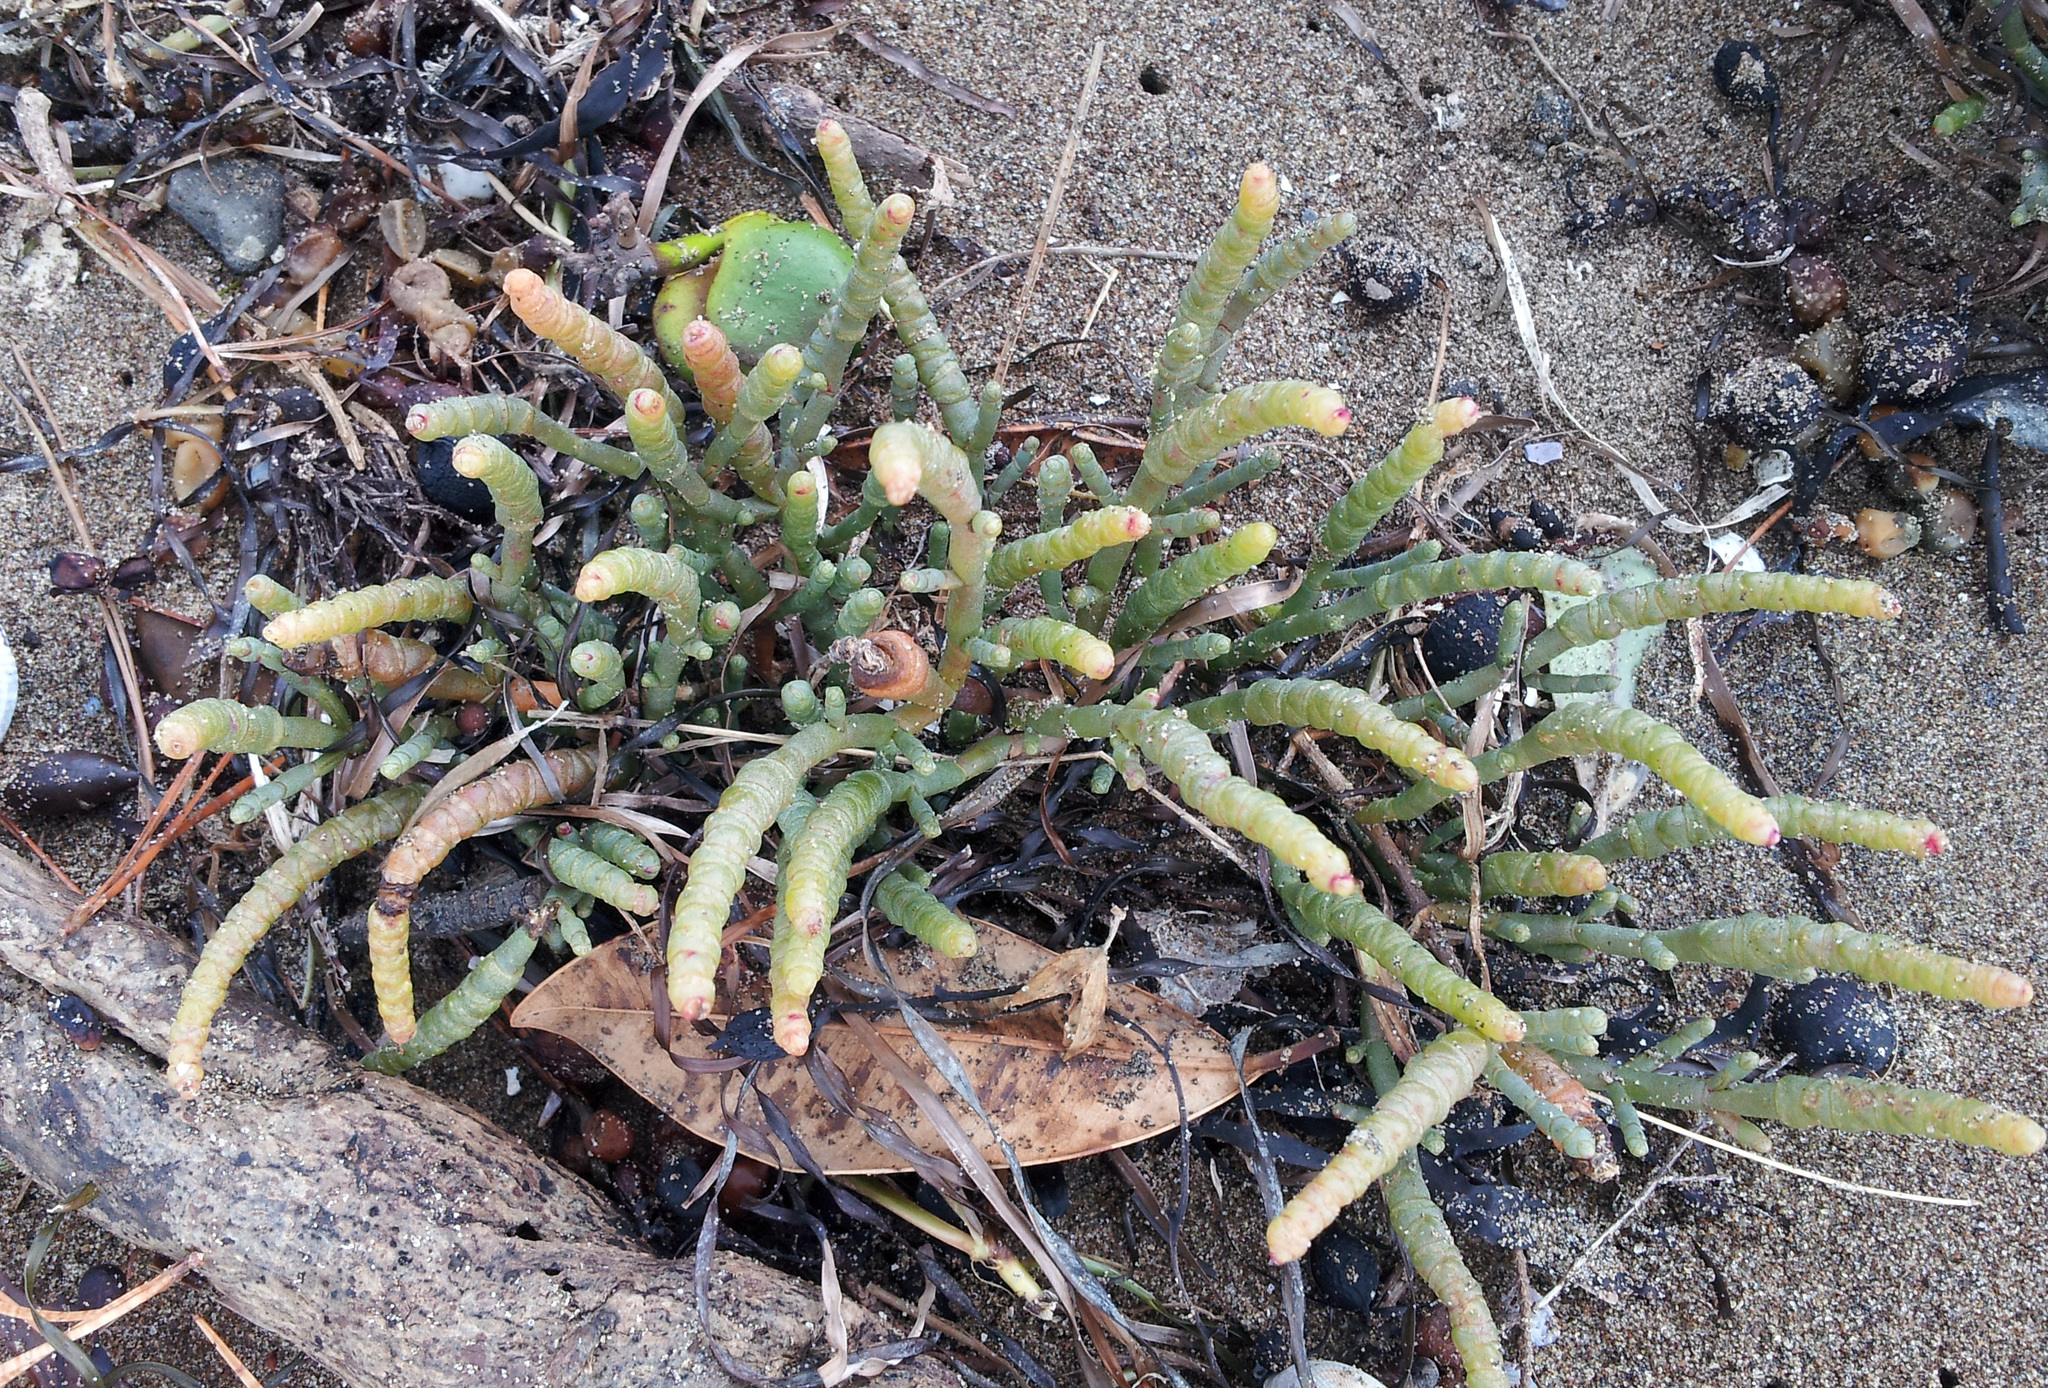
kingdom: Plantae
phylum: Tracheophyta
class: Magnoliopsida
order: Caryophyllales
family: Amaranthaceae
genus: Salicornia
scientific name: Salicornia quinqueflora
